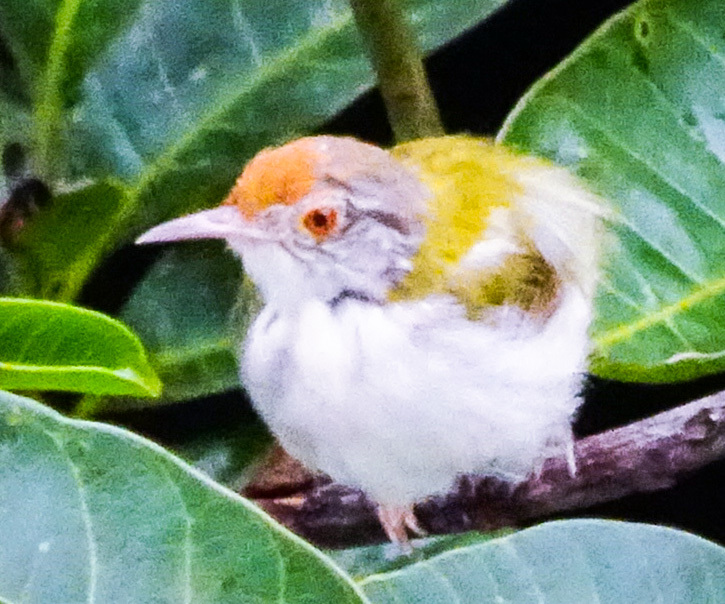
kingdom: Animalia
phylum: Chordata
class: Aves
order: Passeriformes
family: Cisticolidae
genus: Orthotomus
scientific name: Orthotomus sutorius
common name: Common tailorbird
